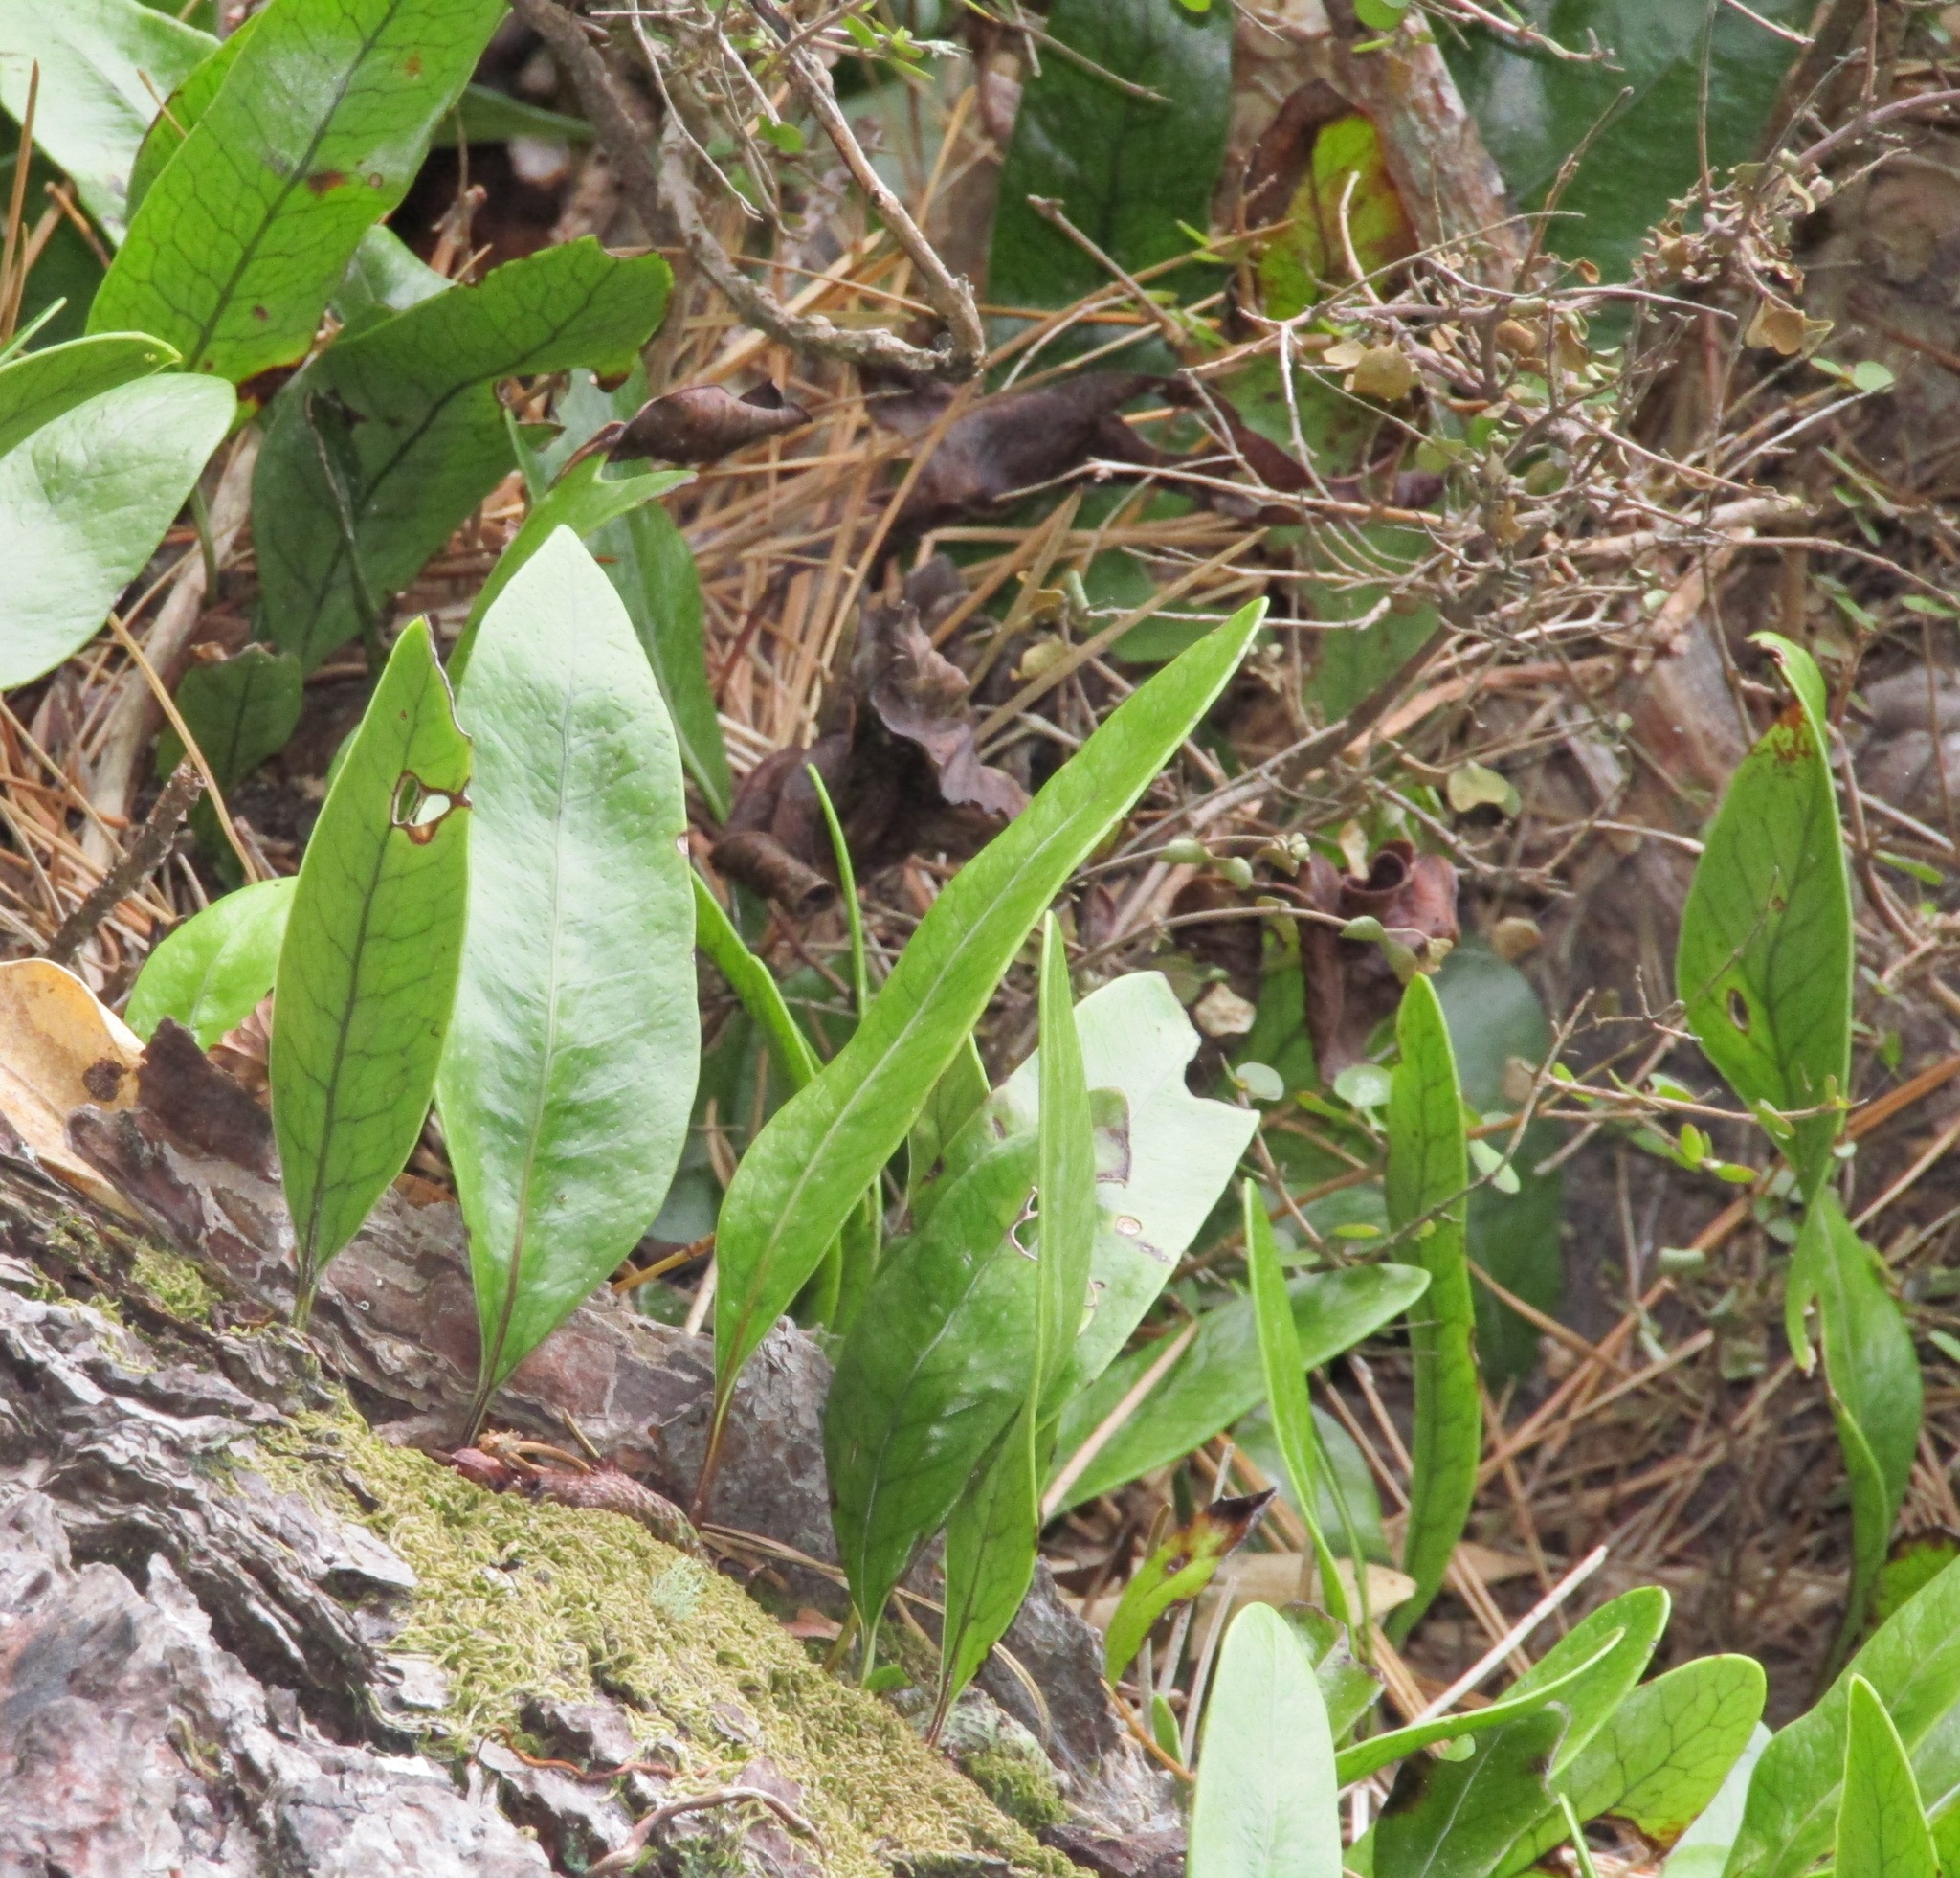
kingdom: Plantae
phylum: Tracheophyta
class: Polypodiopsida
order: Polypodiales
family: Polypodiaceae
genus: Lecanopteris
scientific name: Lecanopteris pustulata
